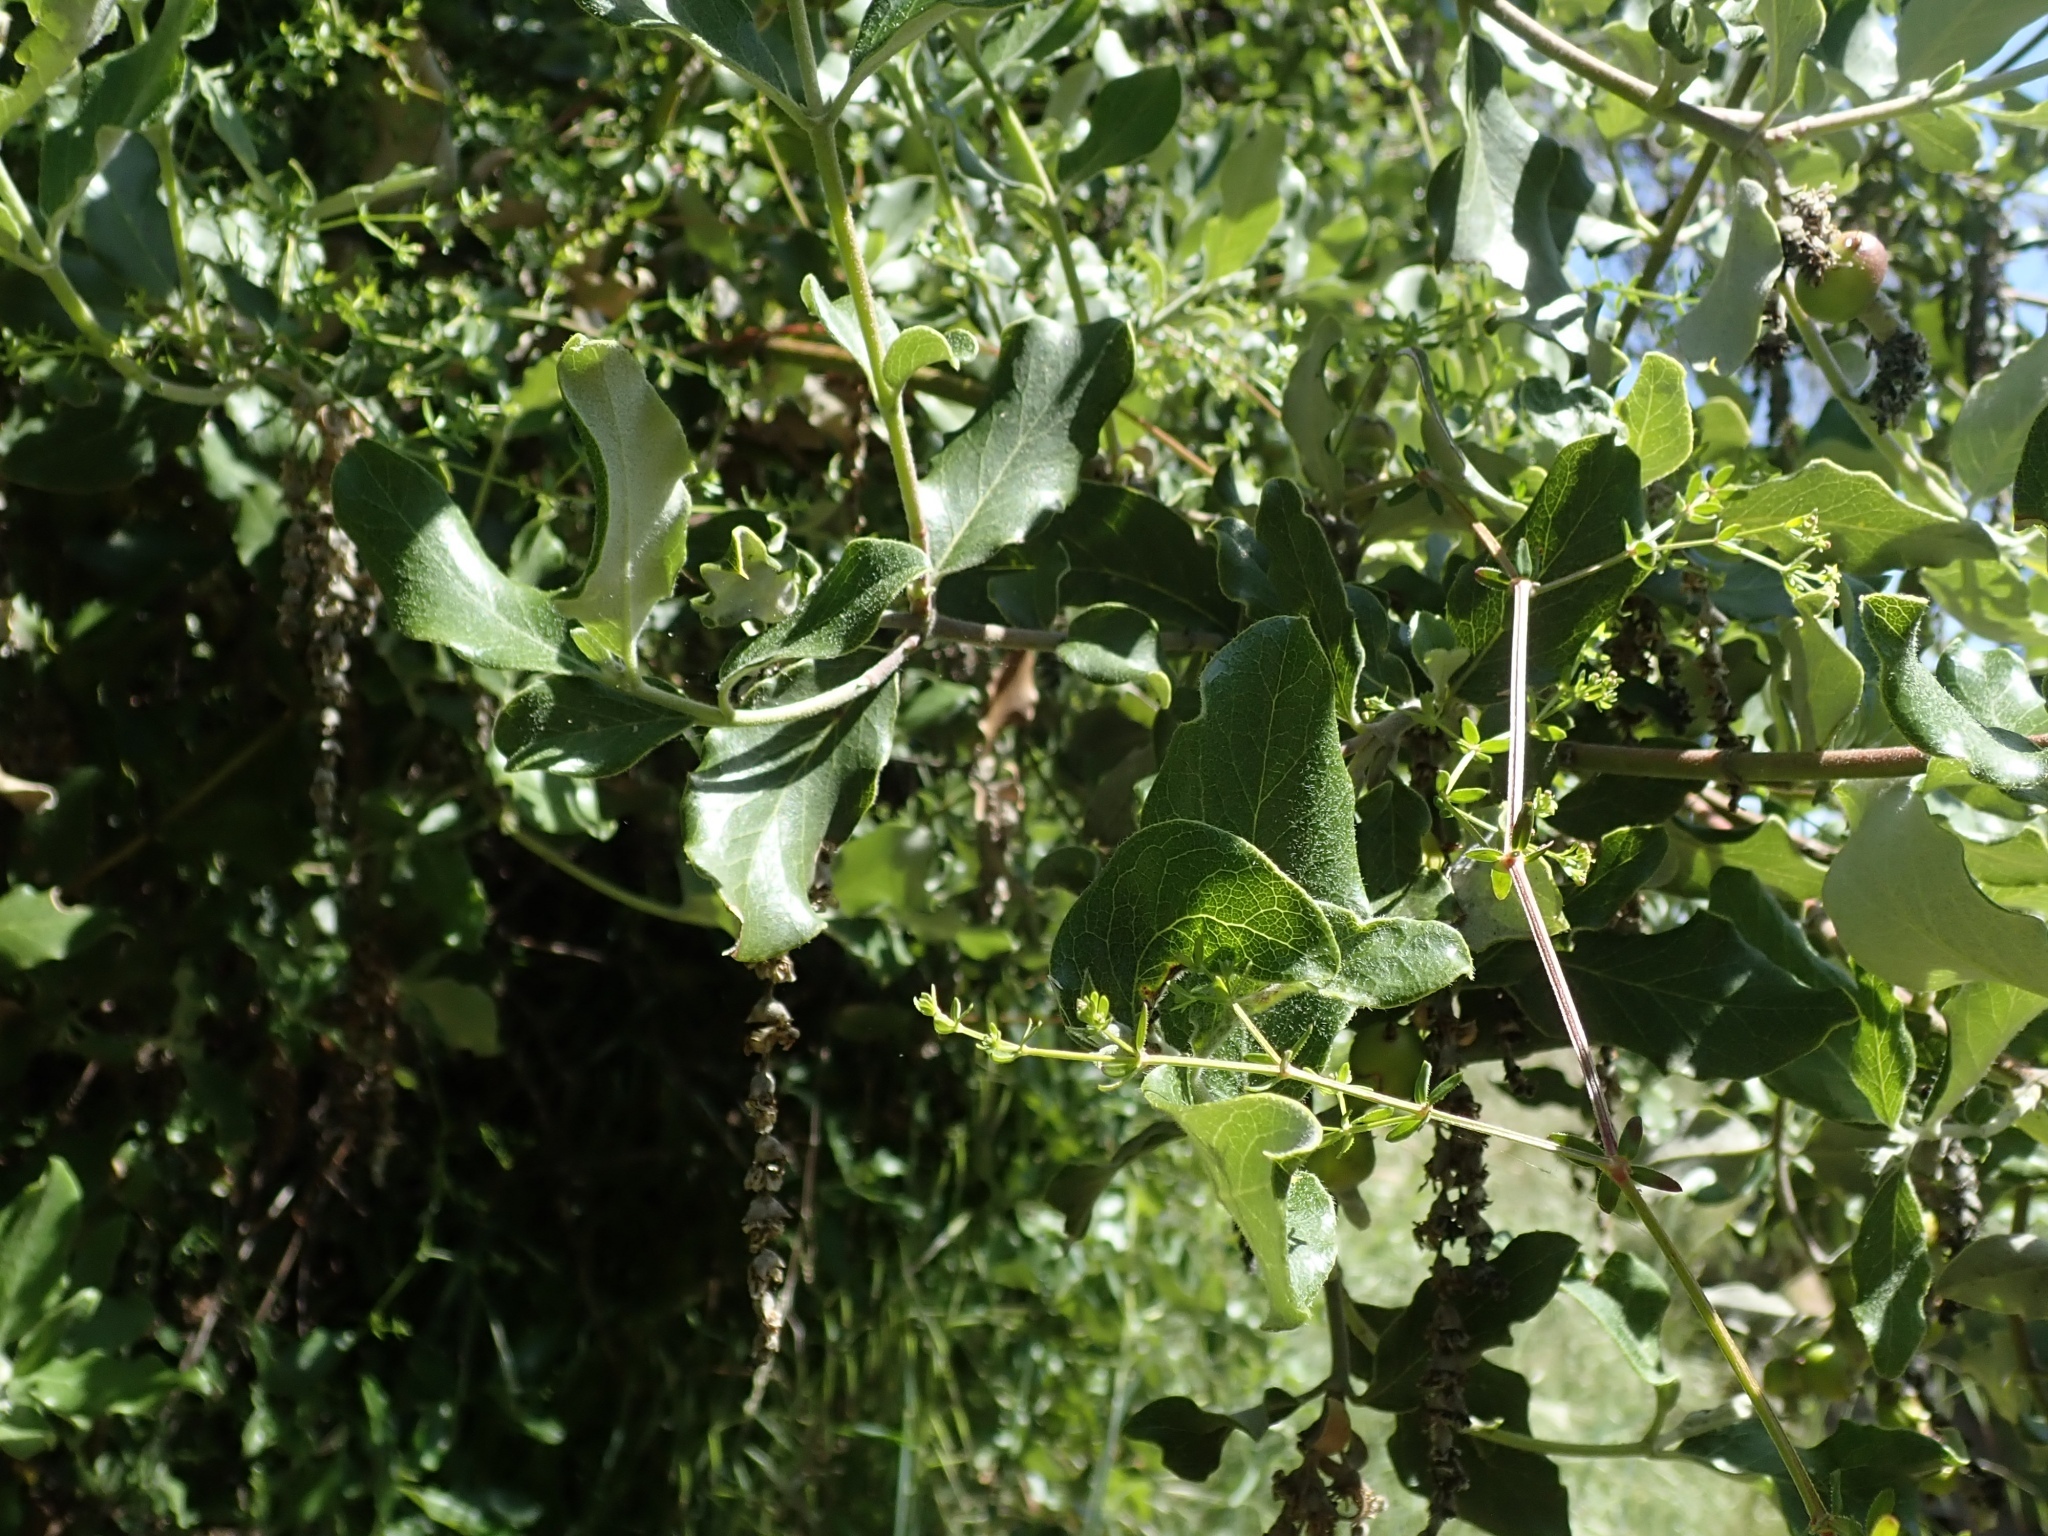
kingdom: Animalia
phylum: Arthropoda
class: Insecta
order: Diptera
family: Cecidomyiidae
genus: Asphondylia
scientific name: Asphondylia garryae
